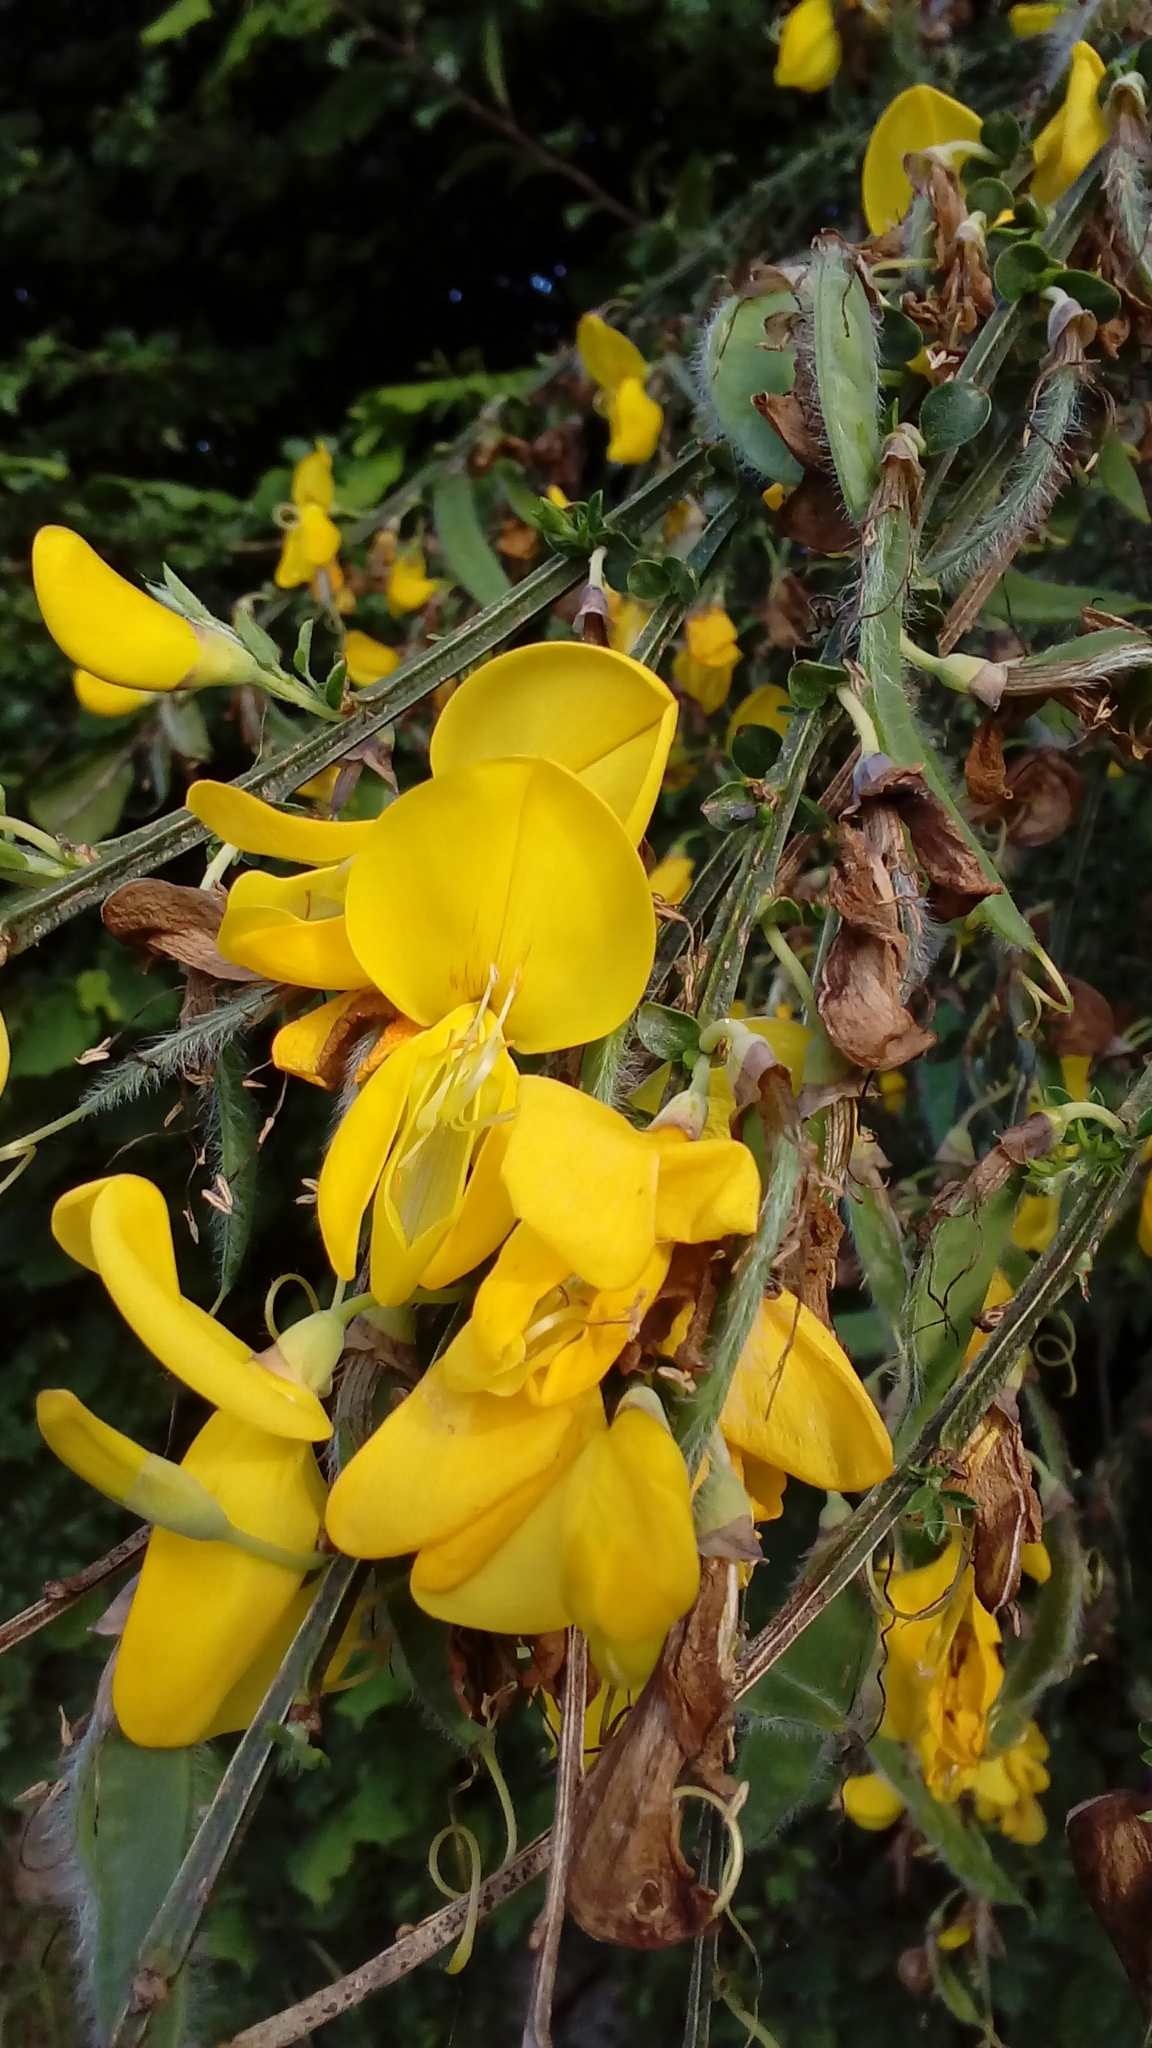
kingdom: Plantae
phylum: Tracheophyta
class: Magnoliopsida
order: Fabales
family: Fabaceae
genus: Cytisus
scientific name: Cytisus scoparius
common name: Scotch broom
